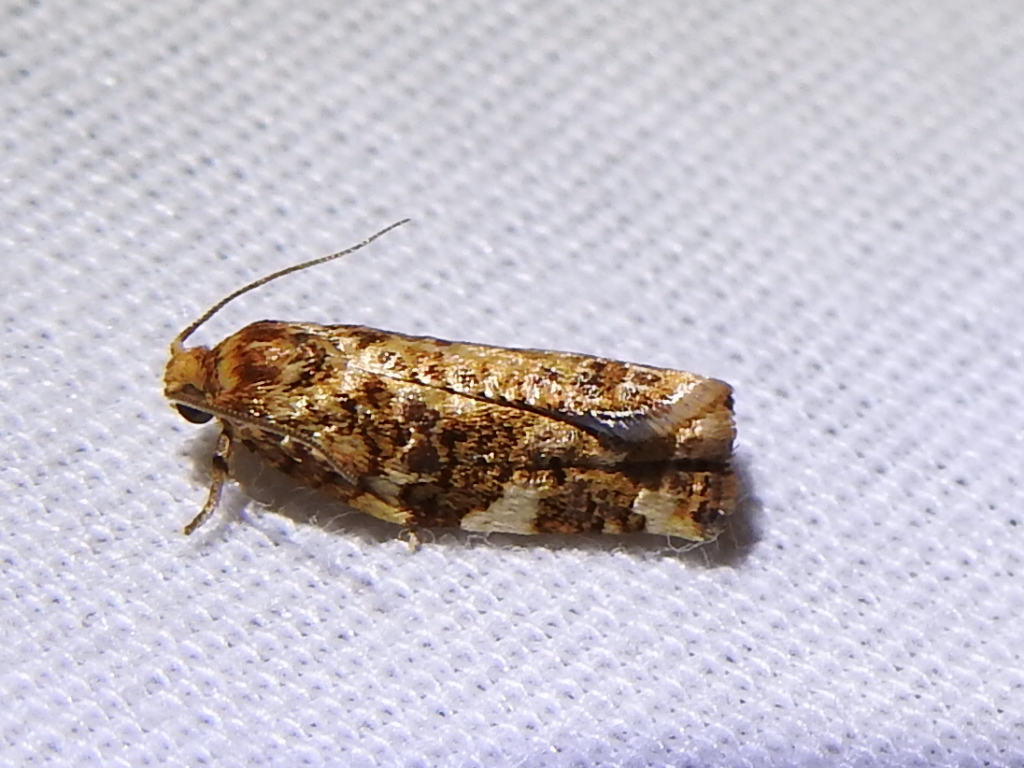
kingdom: Animalia
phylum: Arthropoda
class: Insecta
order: Lepidoptera
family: Tortricidae
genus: Archips
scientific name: Archips argyrospila
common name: Fruit-tree leafroller moth
